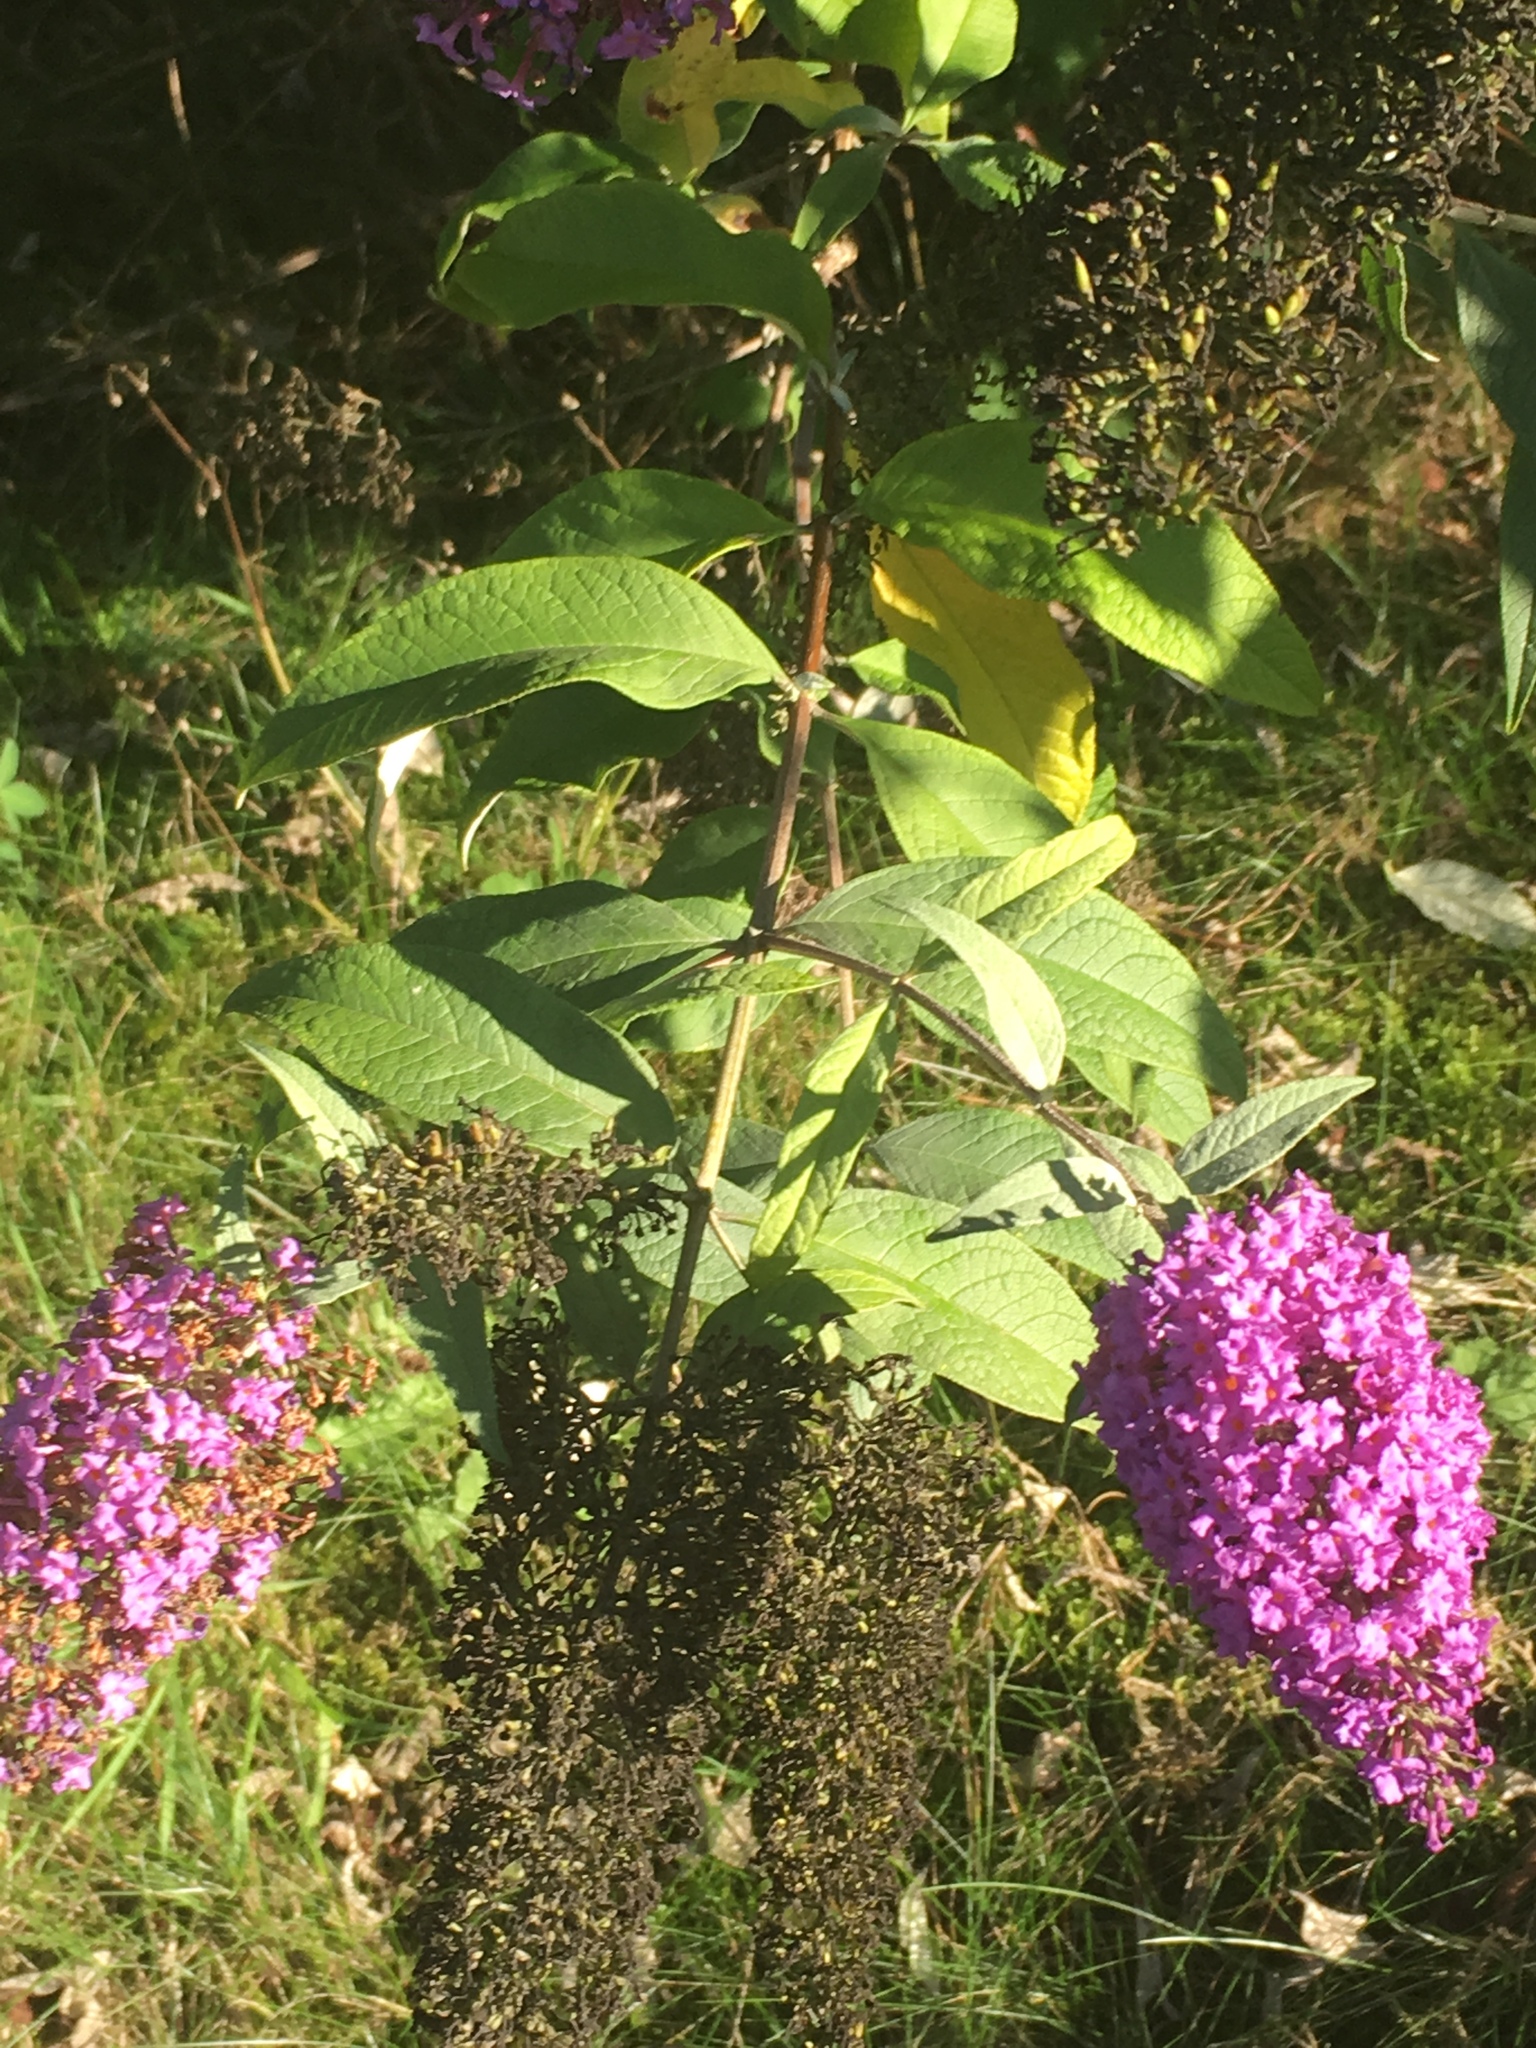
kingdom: Plantae
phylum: Tracheophyta
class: Magnoliopsida
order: Lamiales
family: Scrophulariaceae
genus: Buddleja
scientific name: Buddleja davidii
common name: Butterfly-bush
